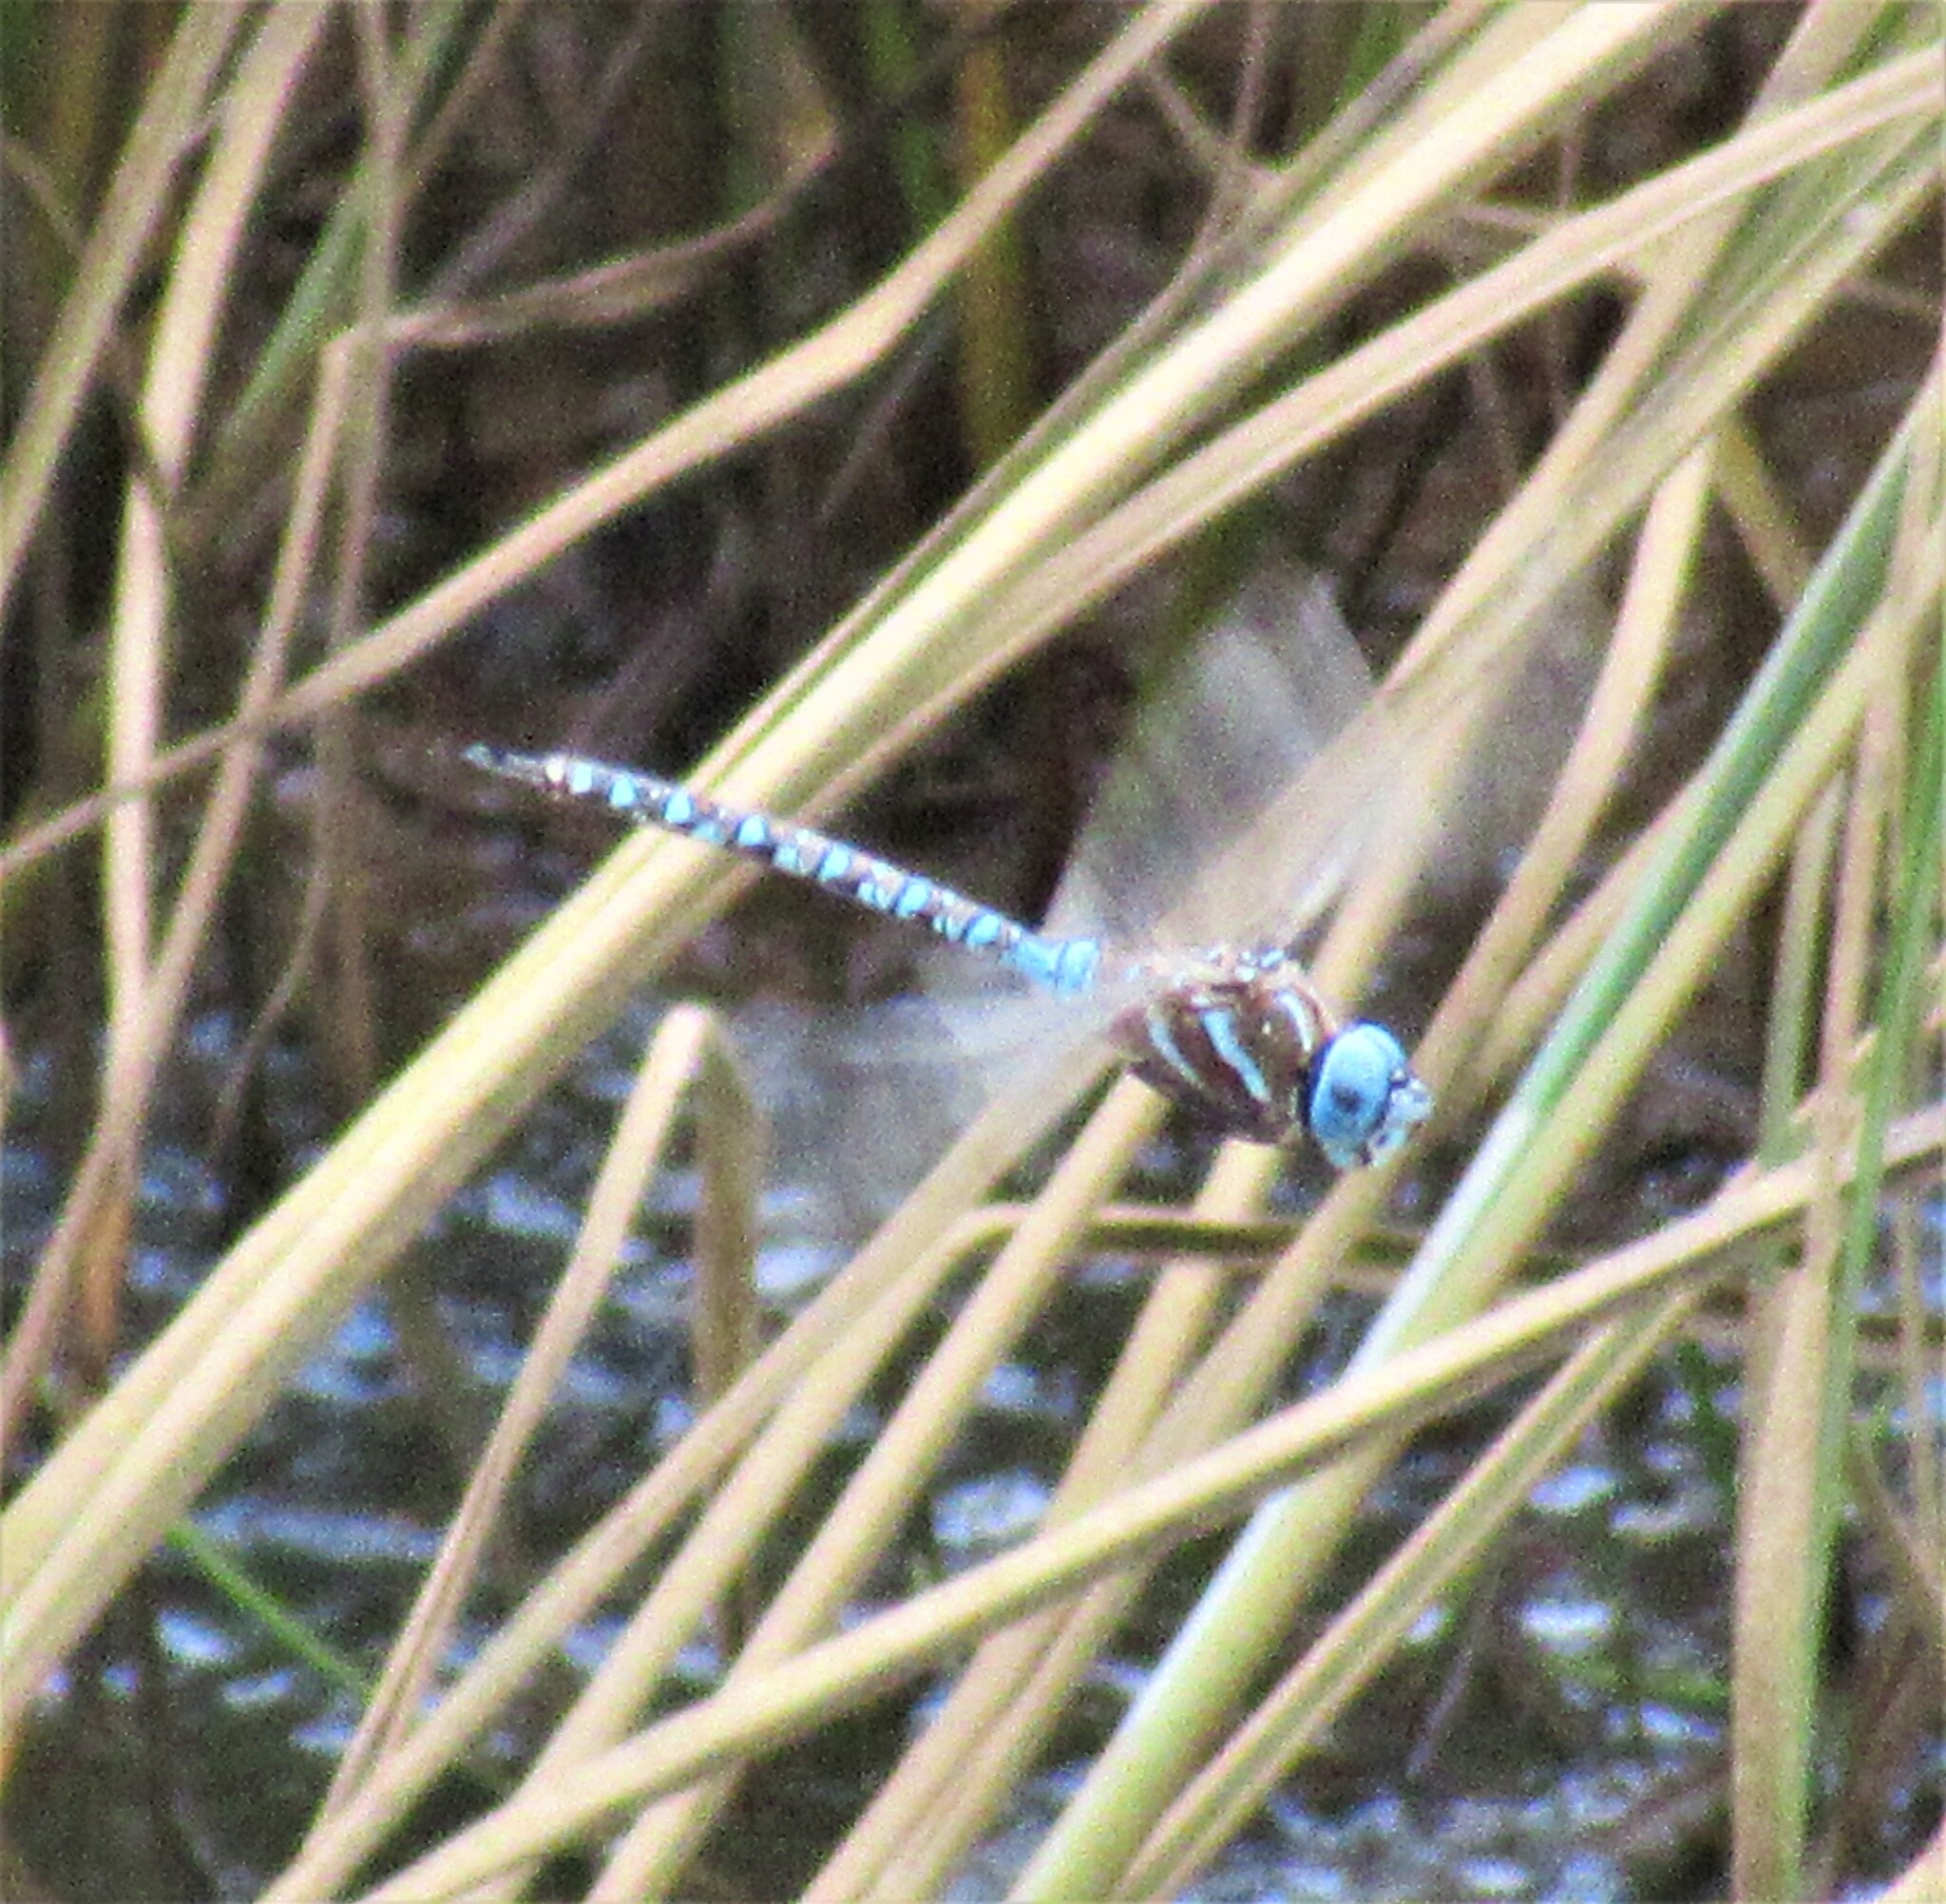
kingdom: Animalia
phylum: Arthropoda
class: Insecta
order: Odonata
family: Aeshnidae
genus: Rhionaeschna
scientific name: Rhionaeschna multicolor
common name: Blue-eyed darner
